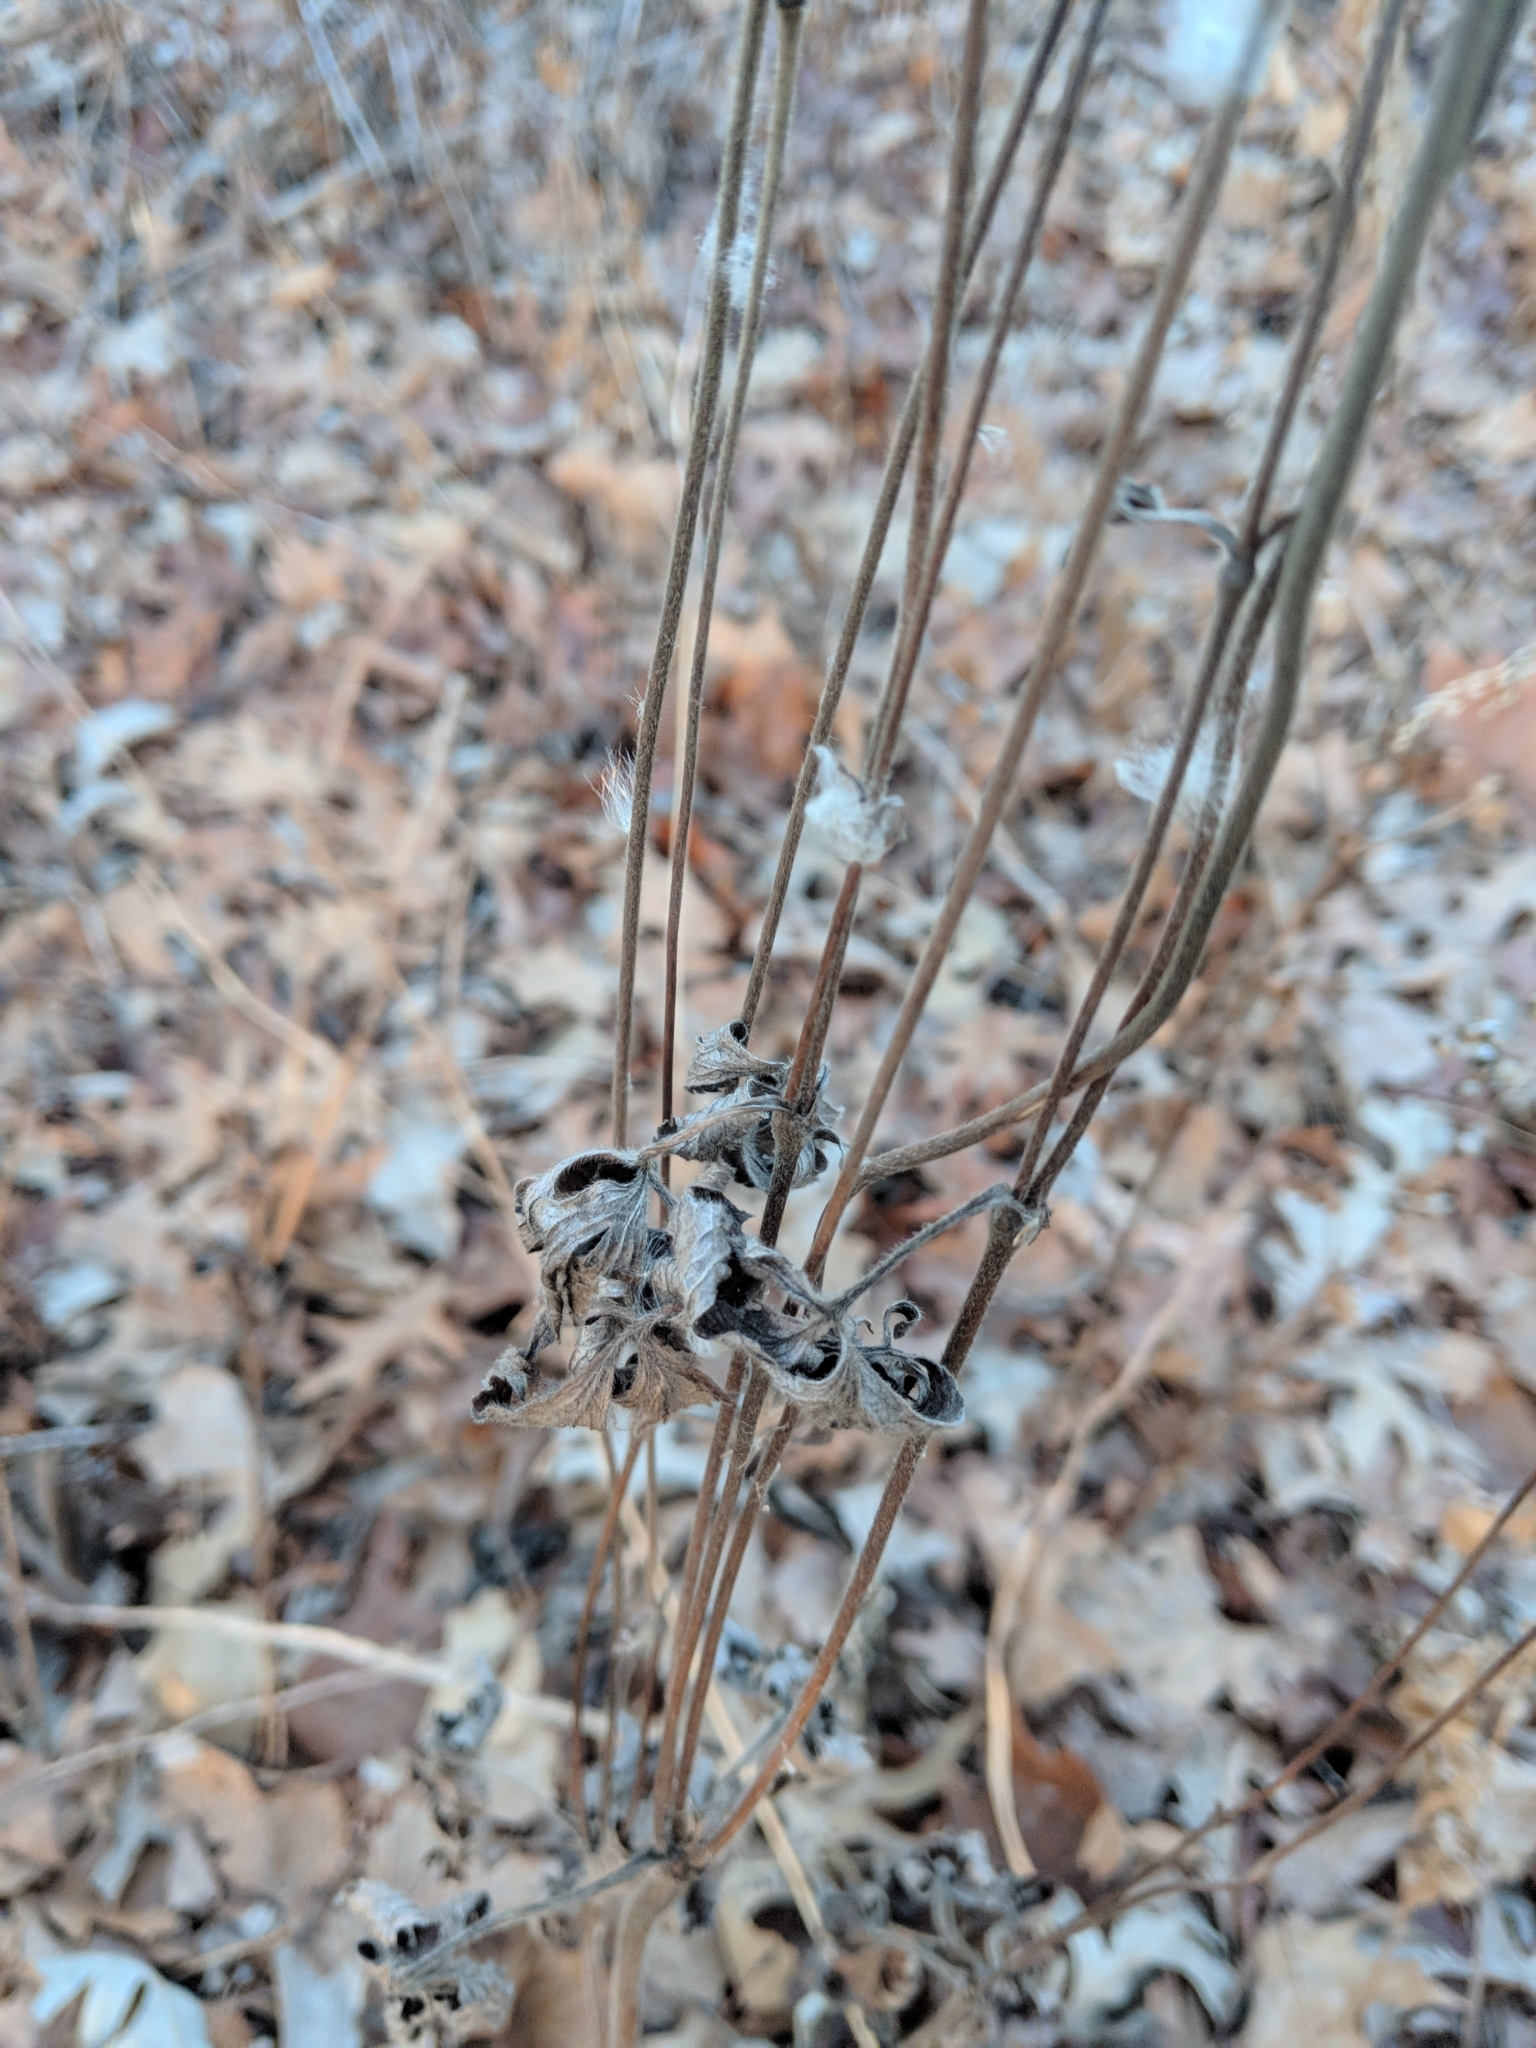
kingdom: Plantae
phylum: Tracheophyta
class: Magnoliopsida
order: Ranunculales
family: Ranunculaceae
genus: Anemone
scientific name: Anemone virginiana
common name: Tall anemone
